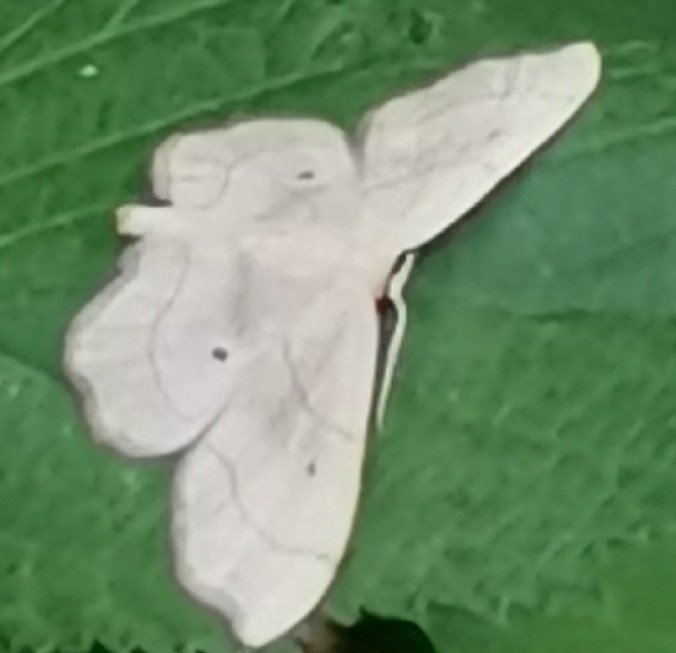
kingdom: Animalia
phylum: Arthropoda
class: Insecta
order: Lepidoptera
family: Geometridae
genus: Idaea
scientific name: Idaea emarginata
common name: Small scallop
